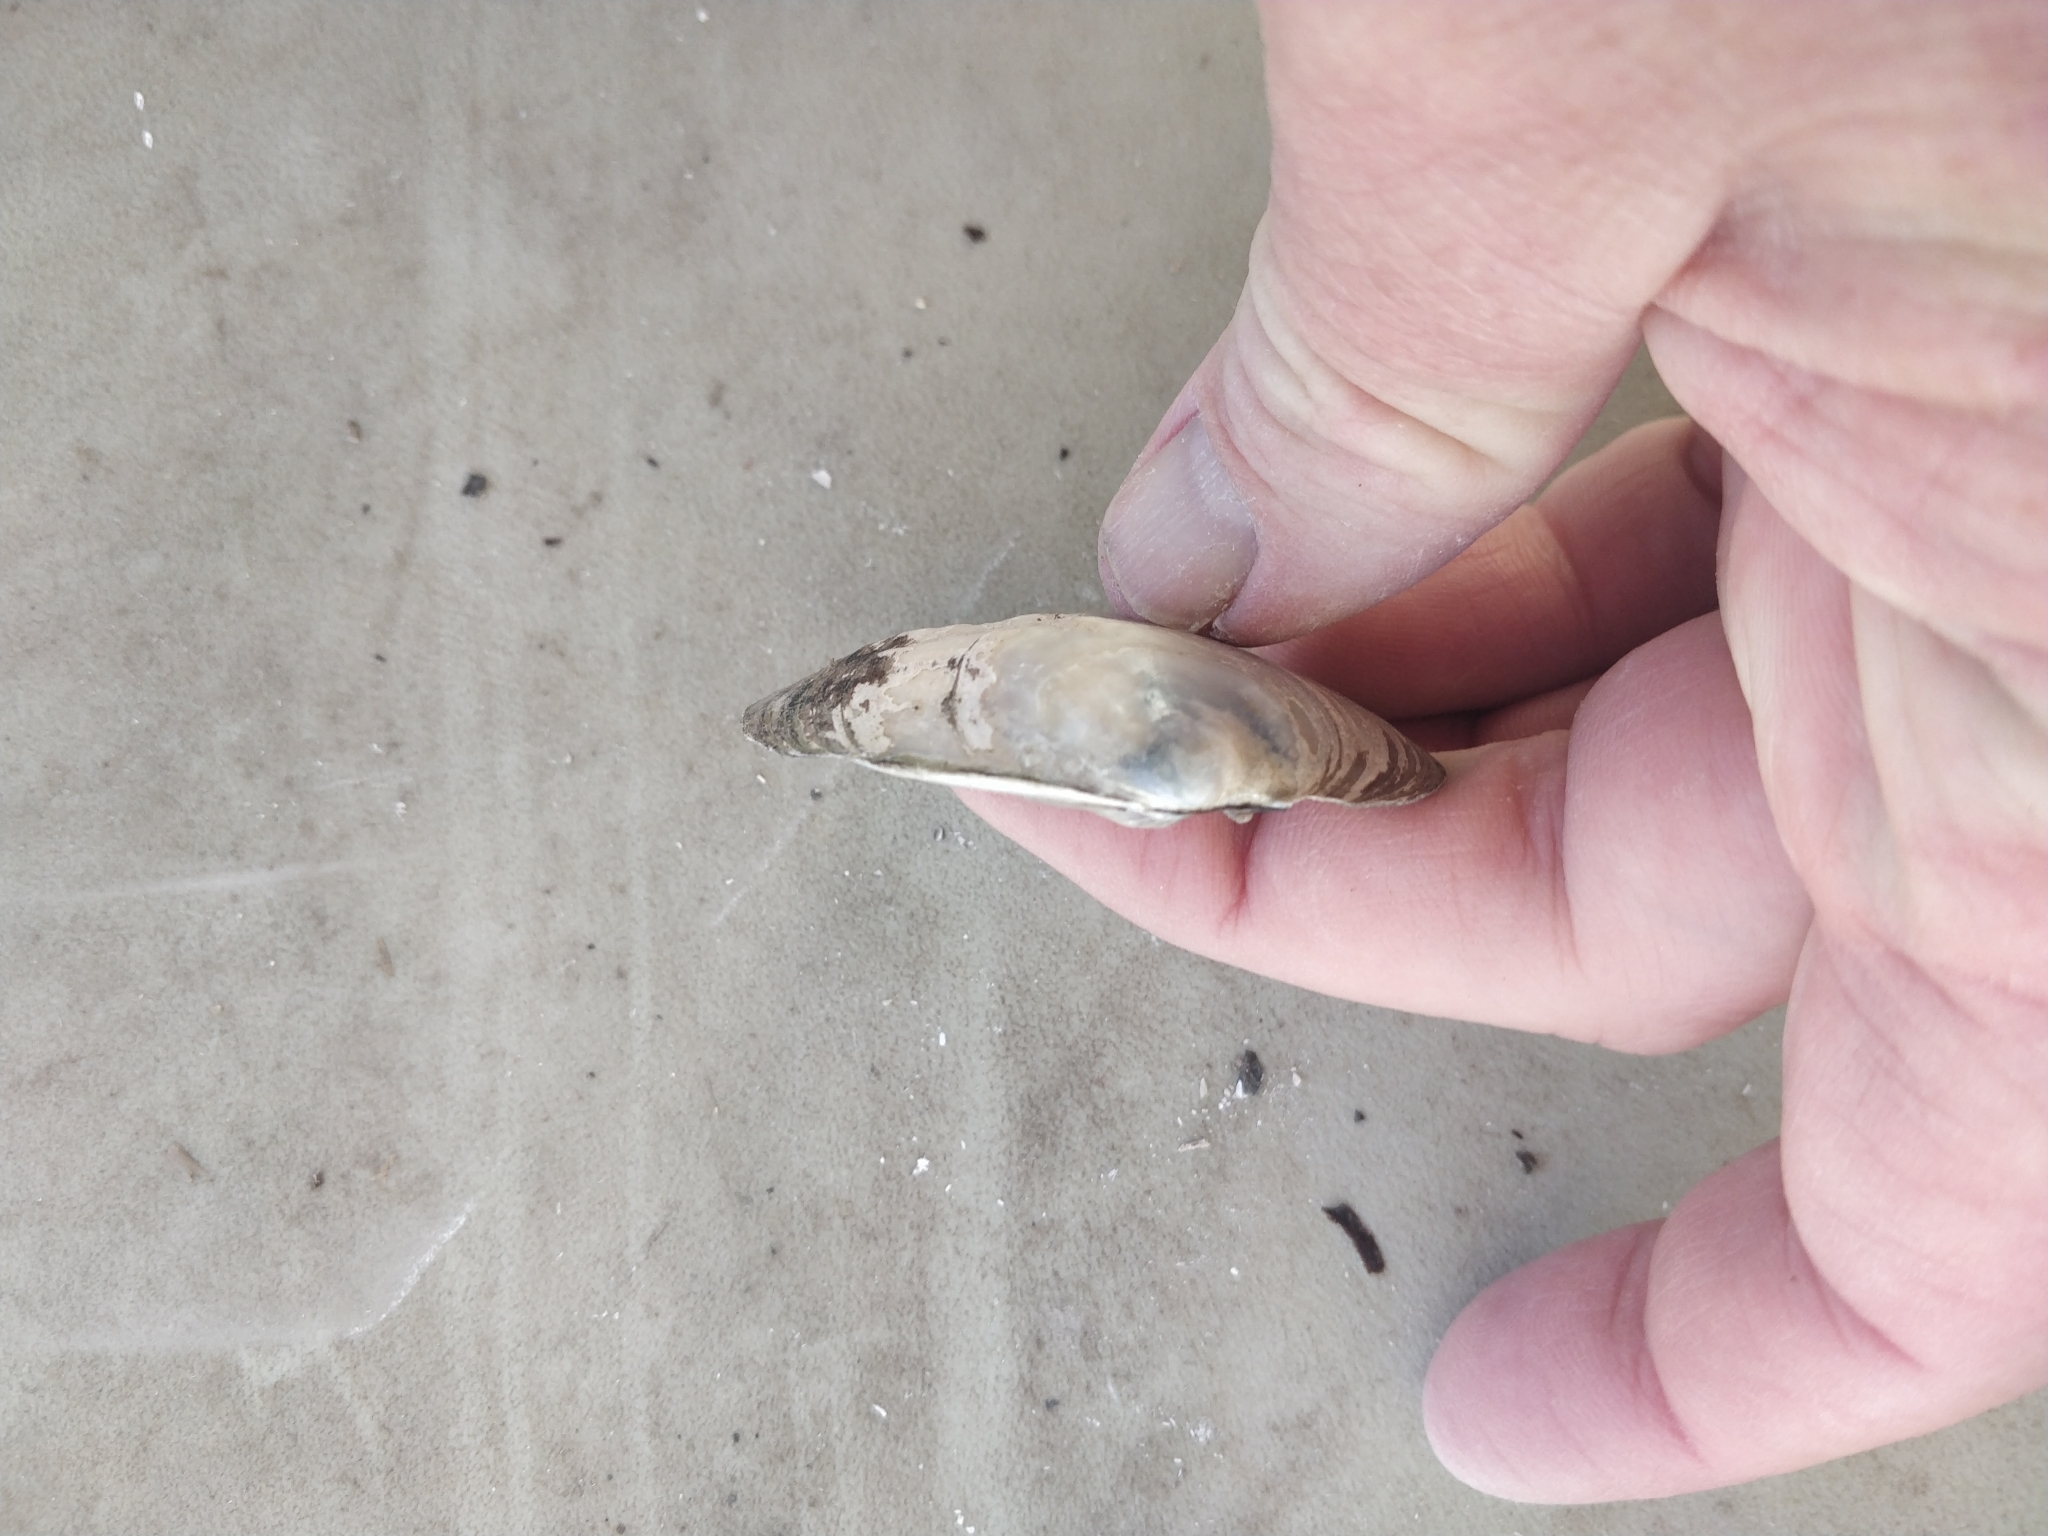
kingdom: Animalia
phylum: Mollusca
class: Bivalvia
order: Unionida
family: Unionidae
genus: Amblema
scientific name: Amblema plicata
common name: Threeridge
